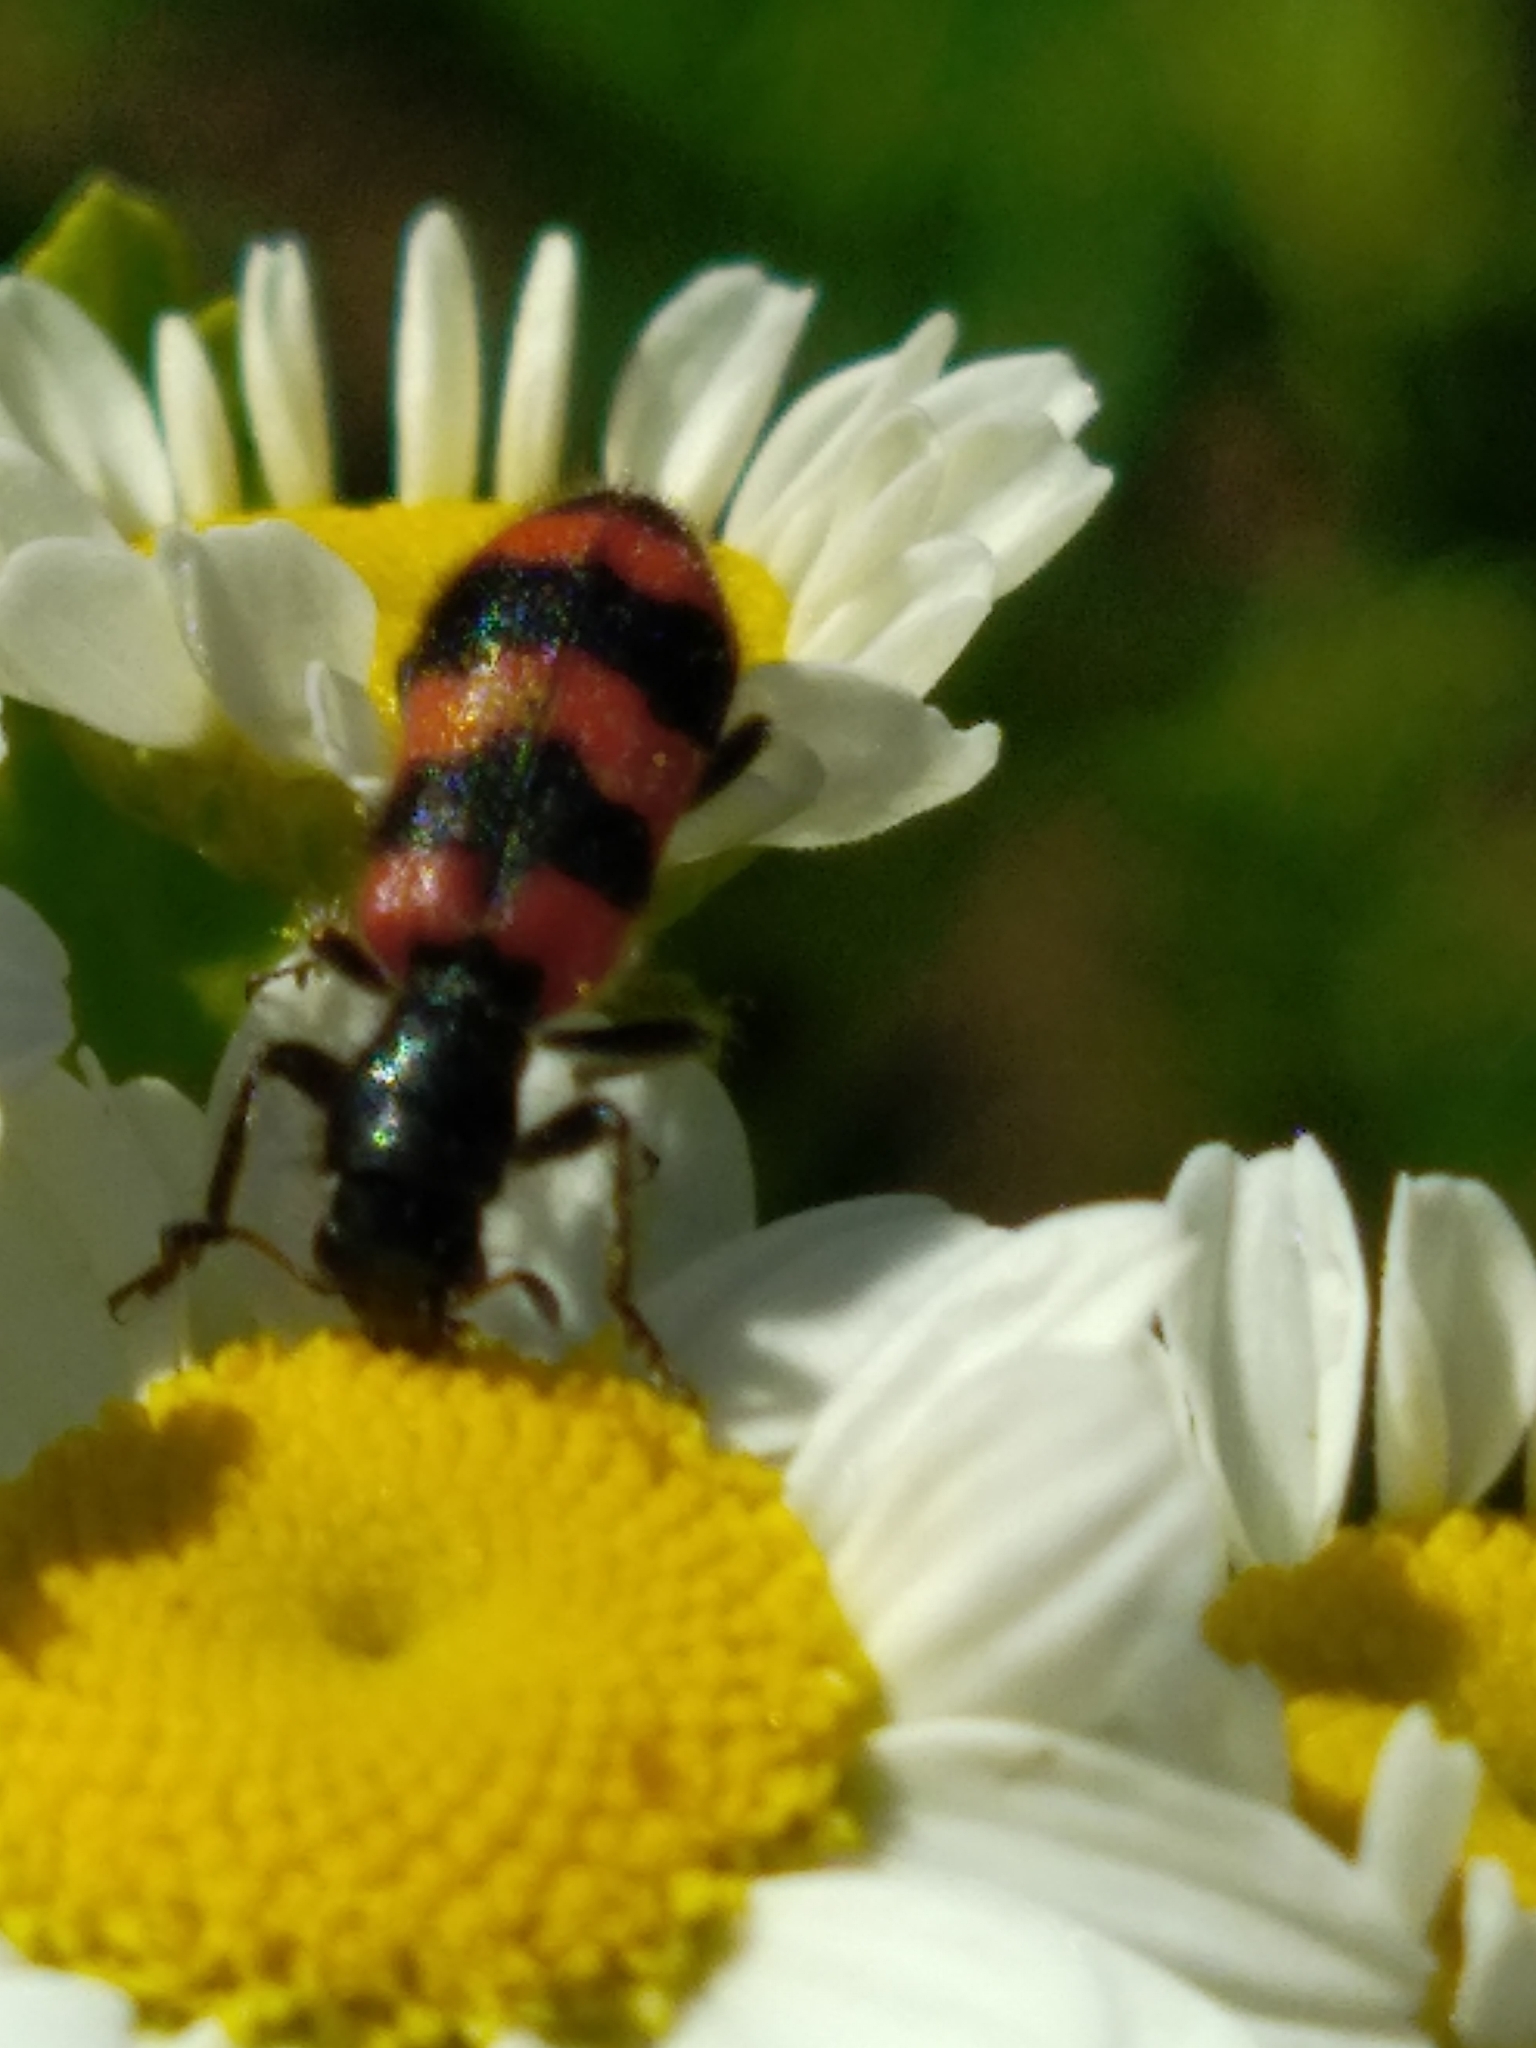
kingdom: Animalia
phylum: Arthropoda
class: Insecta
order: Coleoptera
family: Cleridae
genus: Trichodes
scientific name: Trichodes apiarius
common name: Bee-eating beetle
